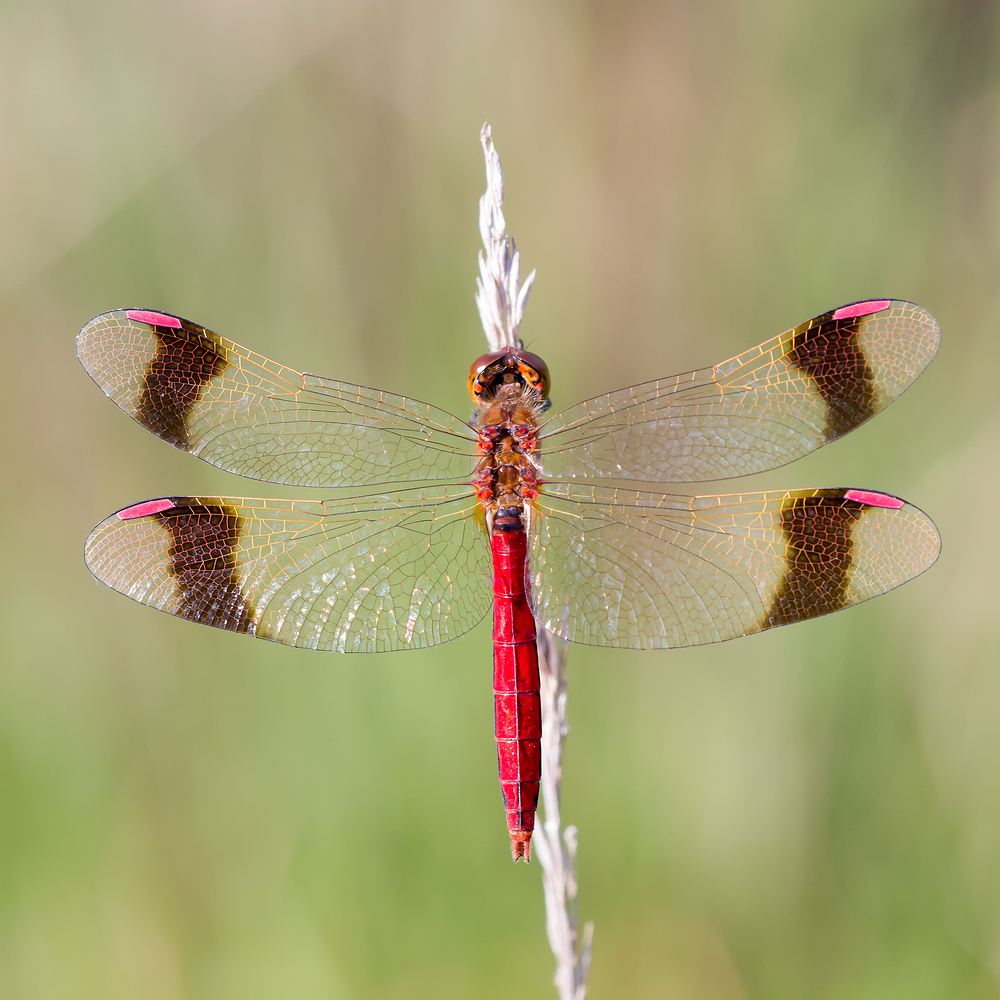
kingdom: Animalia
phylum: Arthropoda
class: Insecta
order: Odonata
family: Libellulidae
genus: Sympetrum
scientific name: Sympetrum pedemontanum
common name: Banded darter
